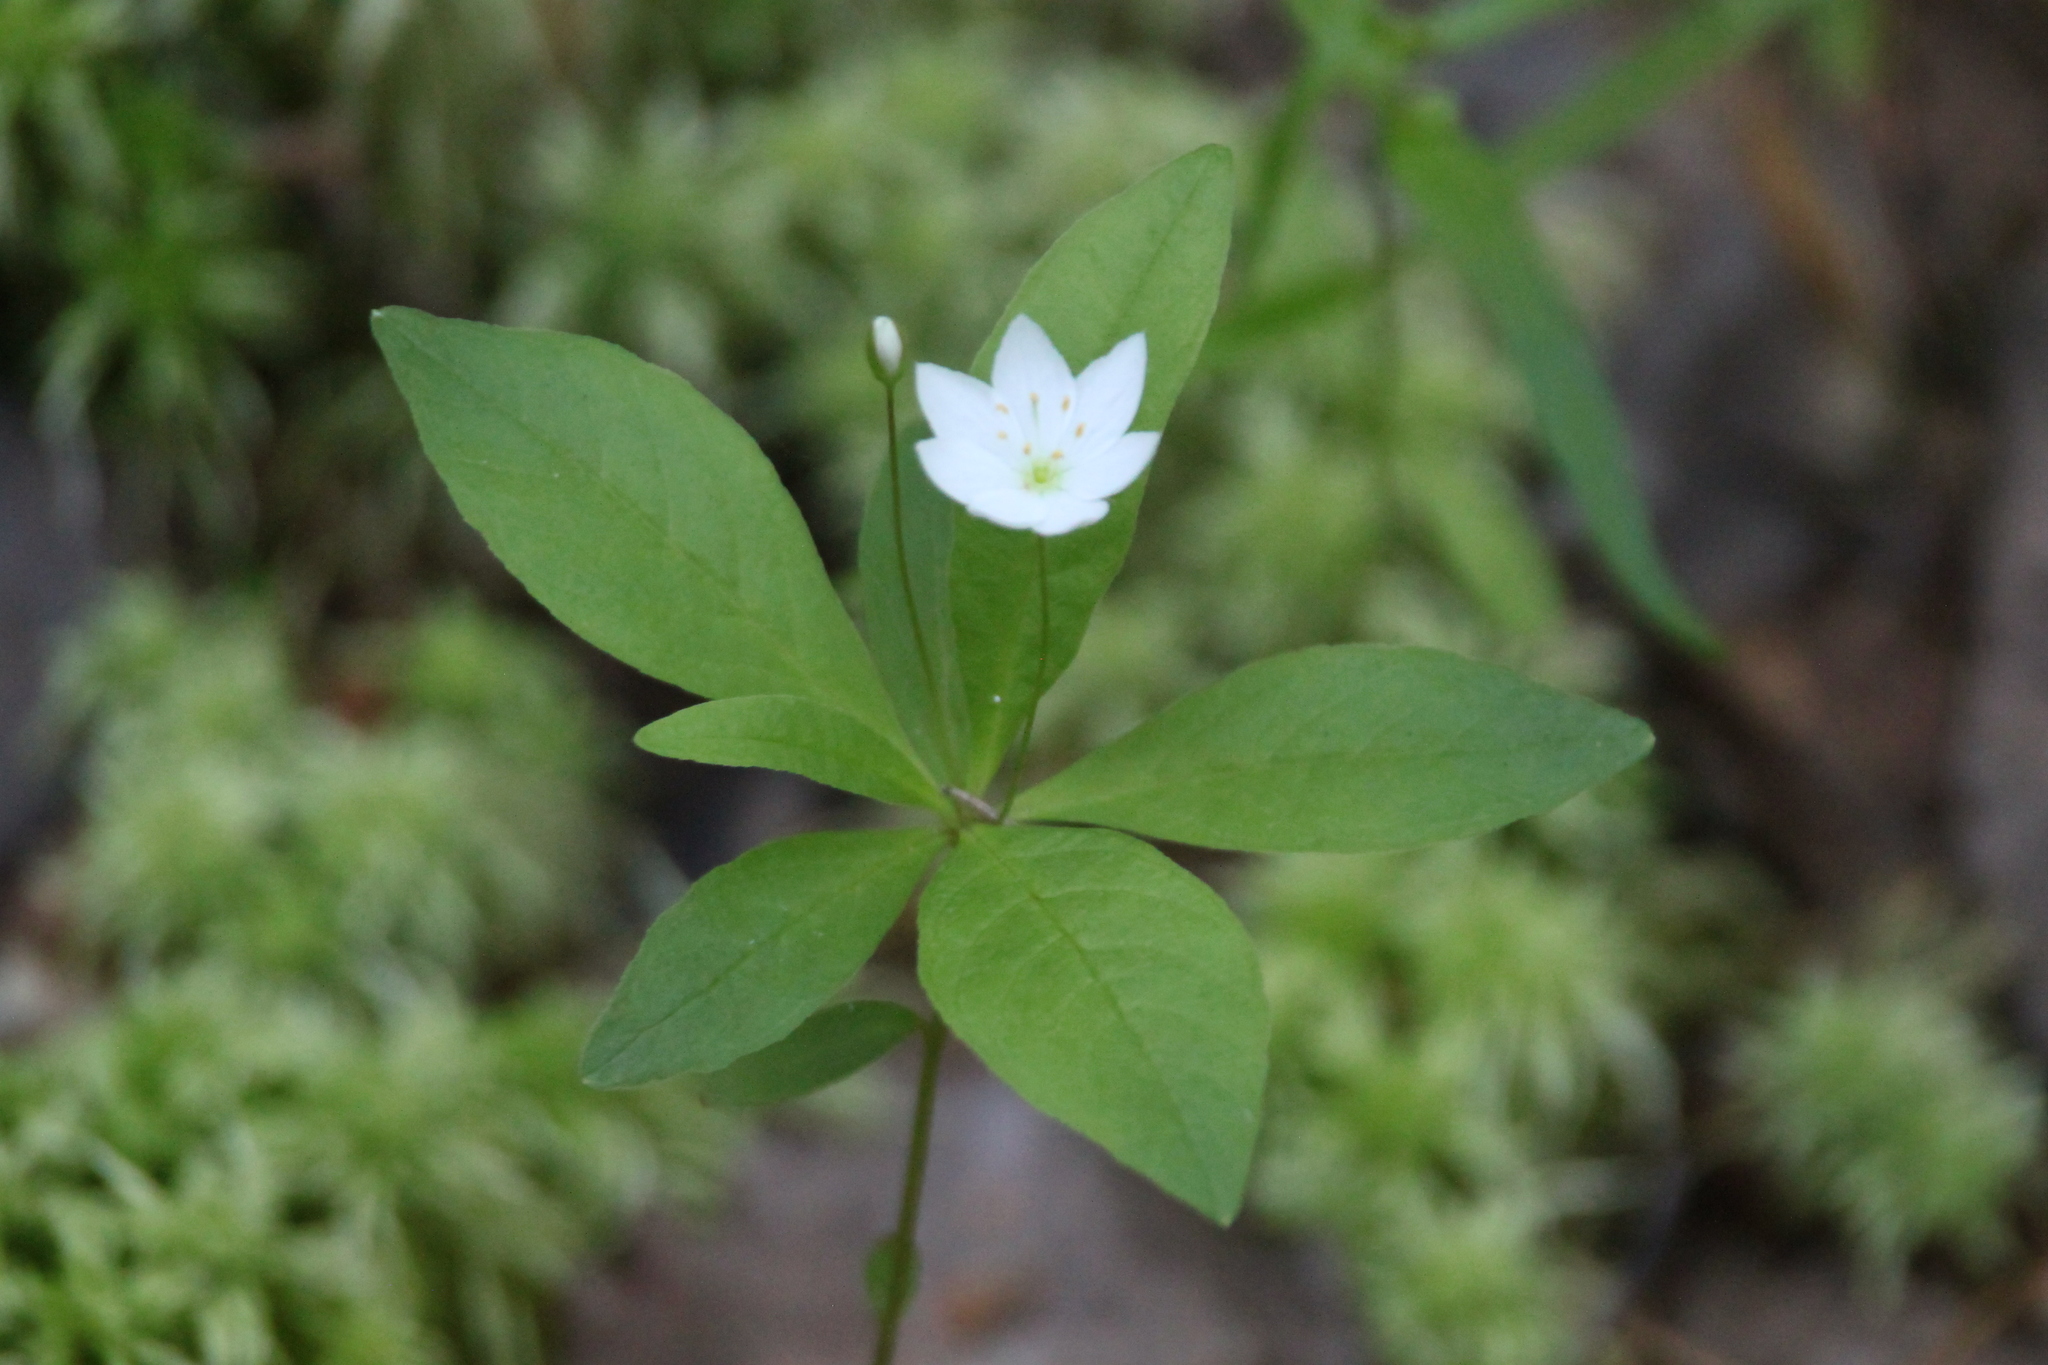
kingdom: Plantae
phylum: Tracheophyta
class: Magnoliopsida
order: Ericales
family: Primulaceae
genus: Lysimachia
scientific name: Lysimachia europaea
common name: Arctic starflower
